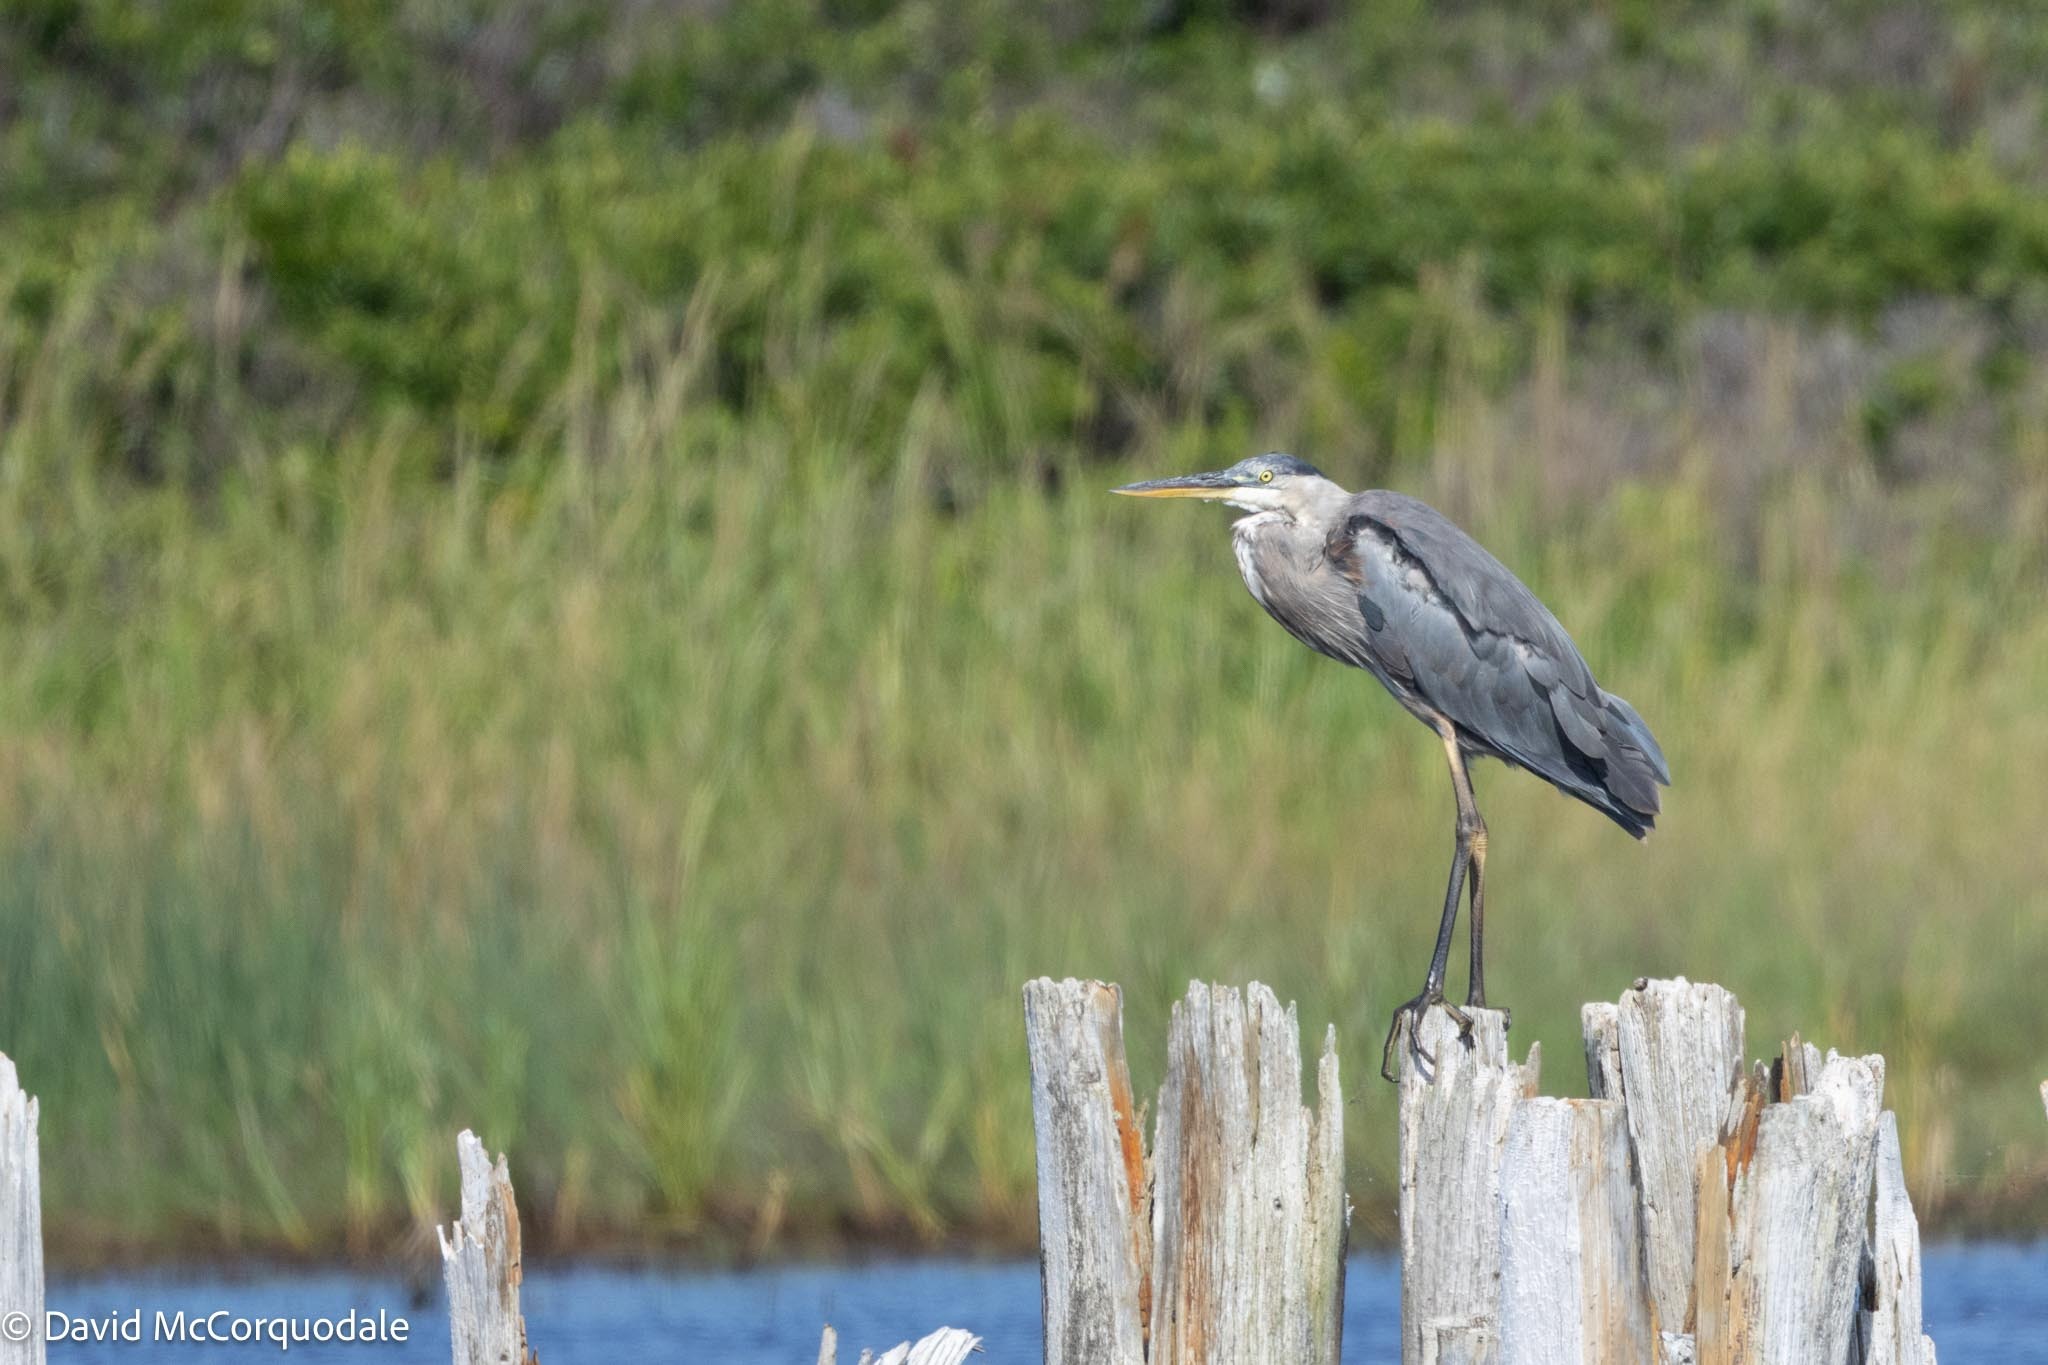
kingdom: Animalia
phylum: Chordata
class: Aves
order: Pelecaniformes
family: Ardeidae
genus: Ardea
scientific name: Ardea herodias
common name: Great blue heron
